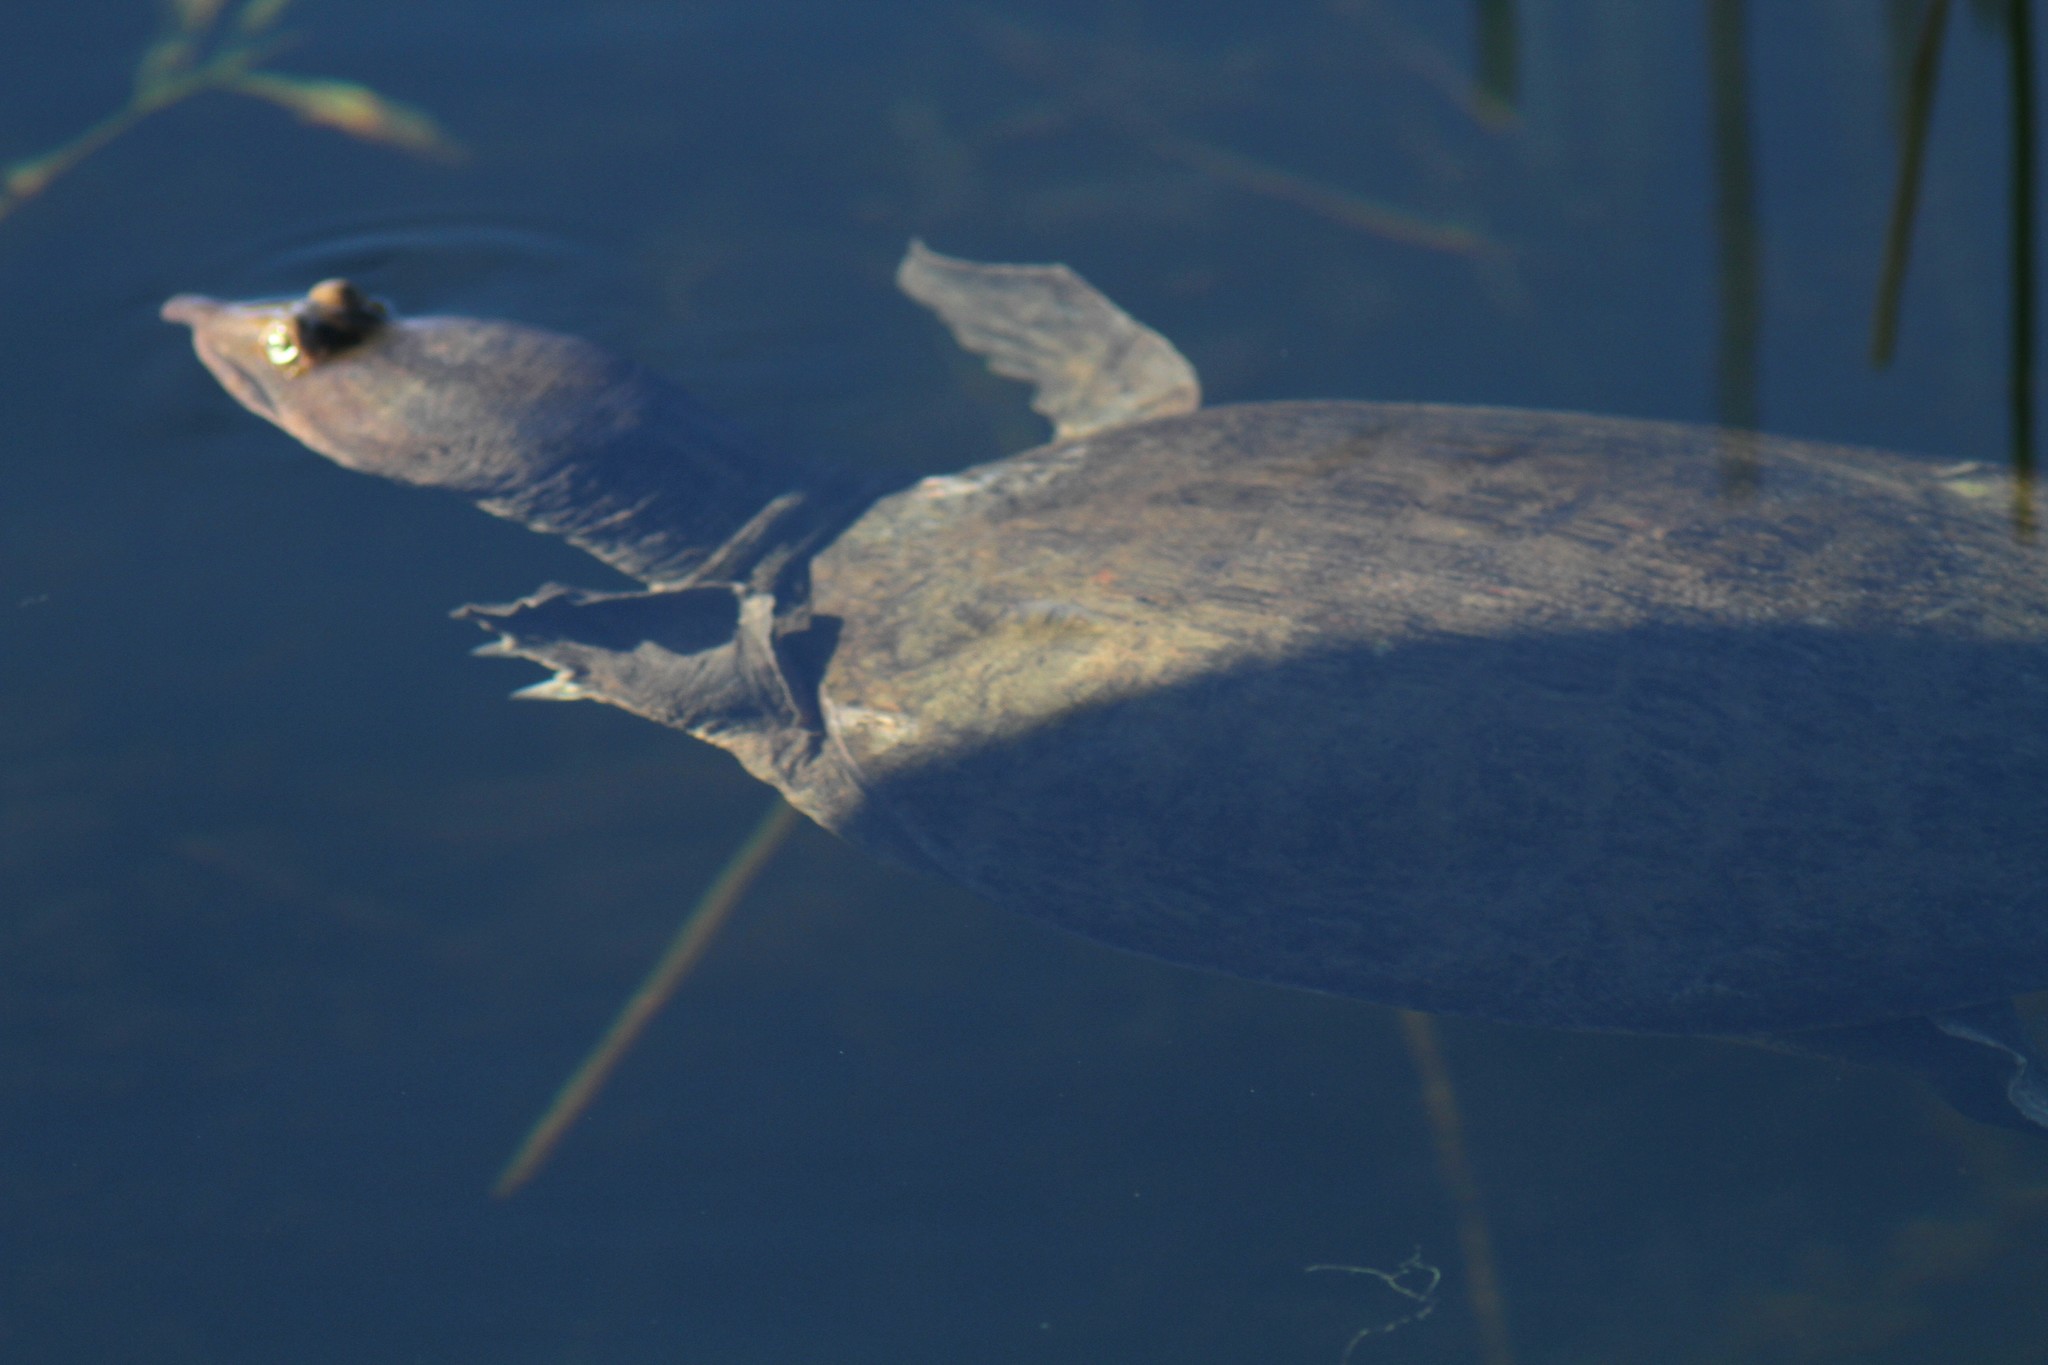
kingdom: Animalia
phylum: Chordata
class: Testudines
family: Trionychidae
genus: Apalone
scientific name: Apalone ferox
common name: Florida softshell turtle
